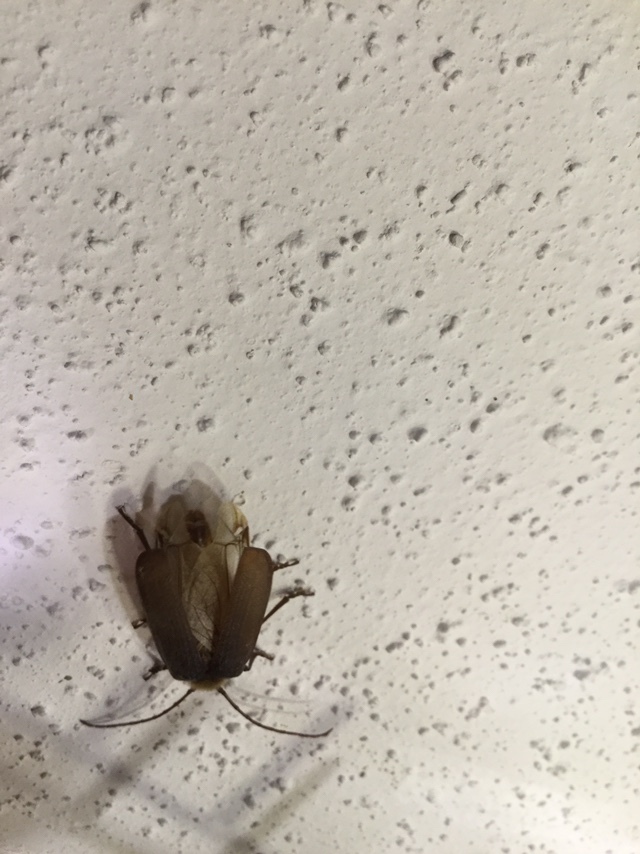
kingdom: Animalia
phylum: Arthropoda
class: Insecta
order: Coleoptera
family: Cerambycidae
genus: Tragosoma
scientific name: Tragosoma harrisii
